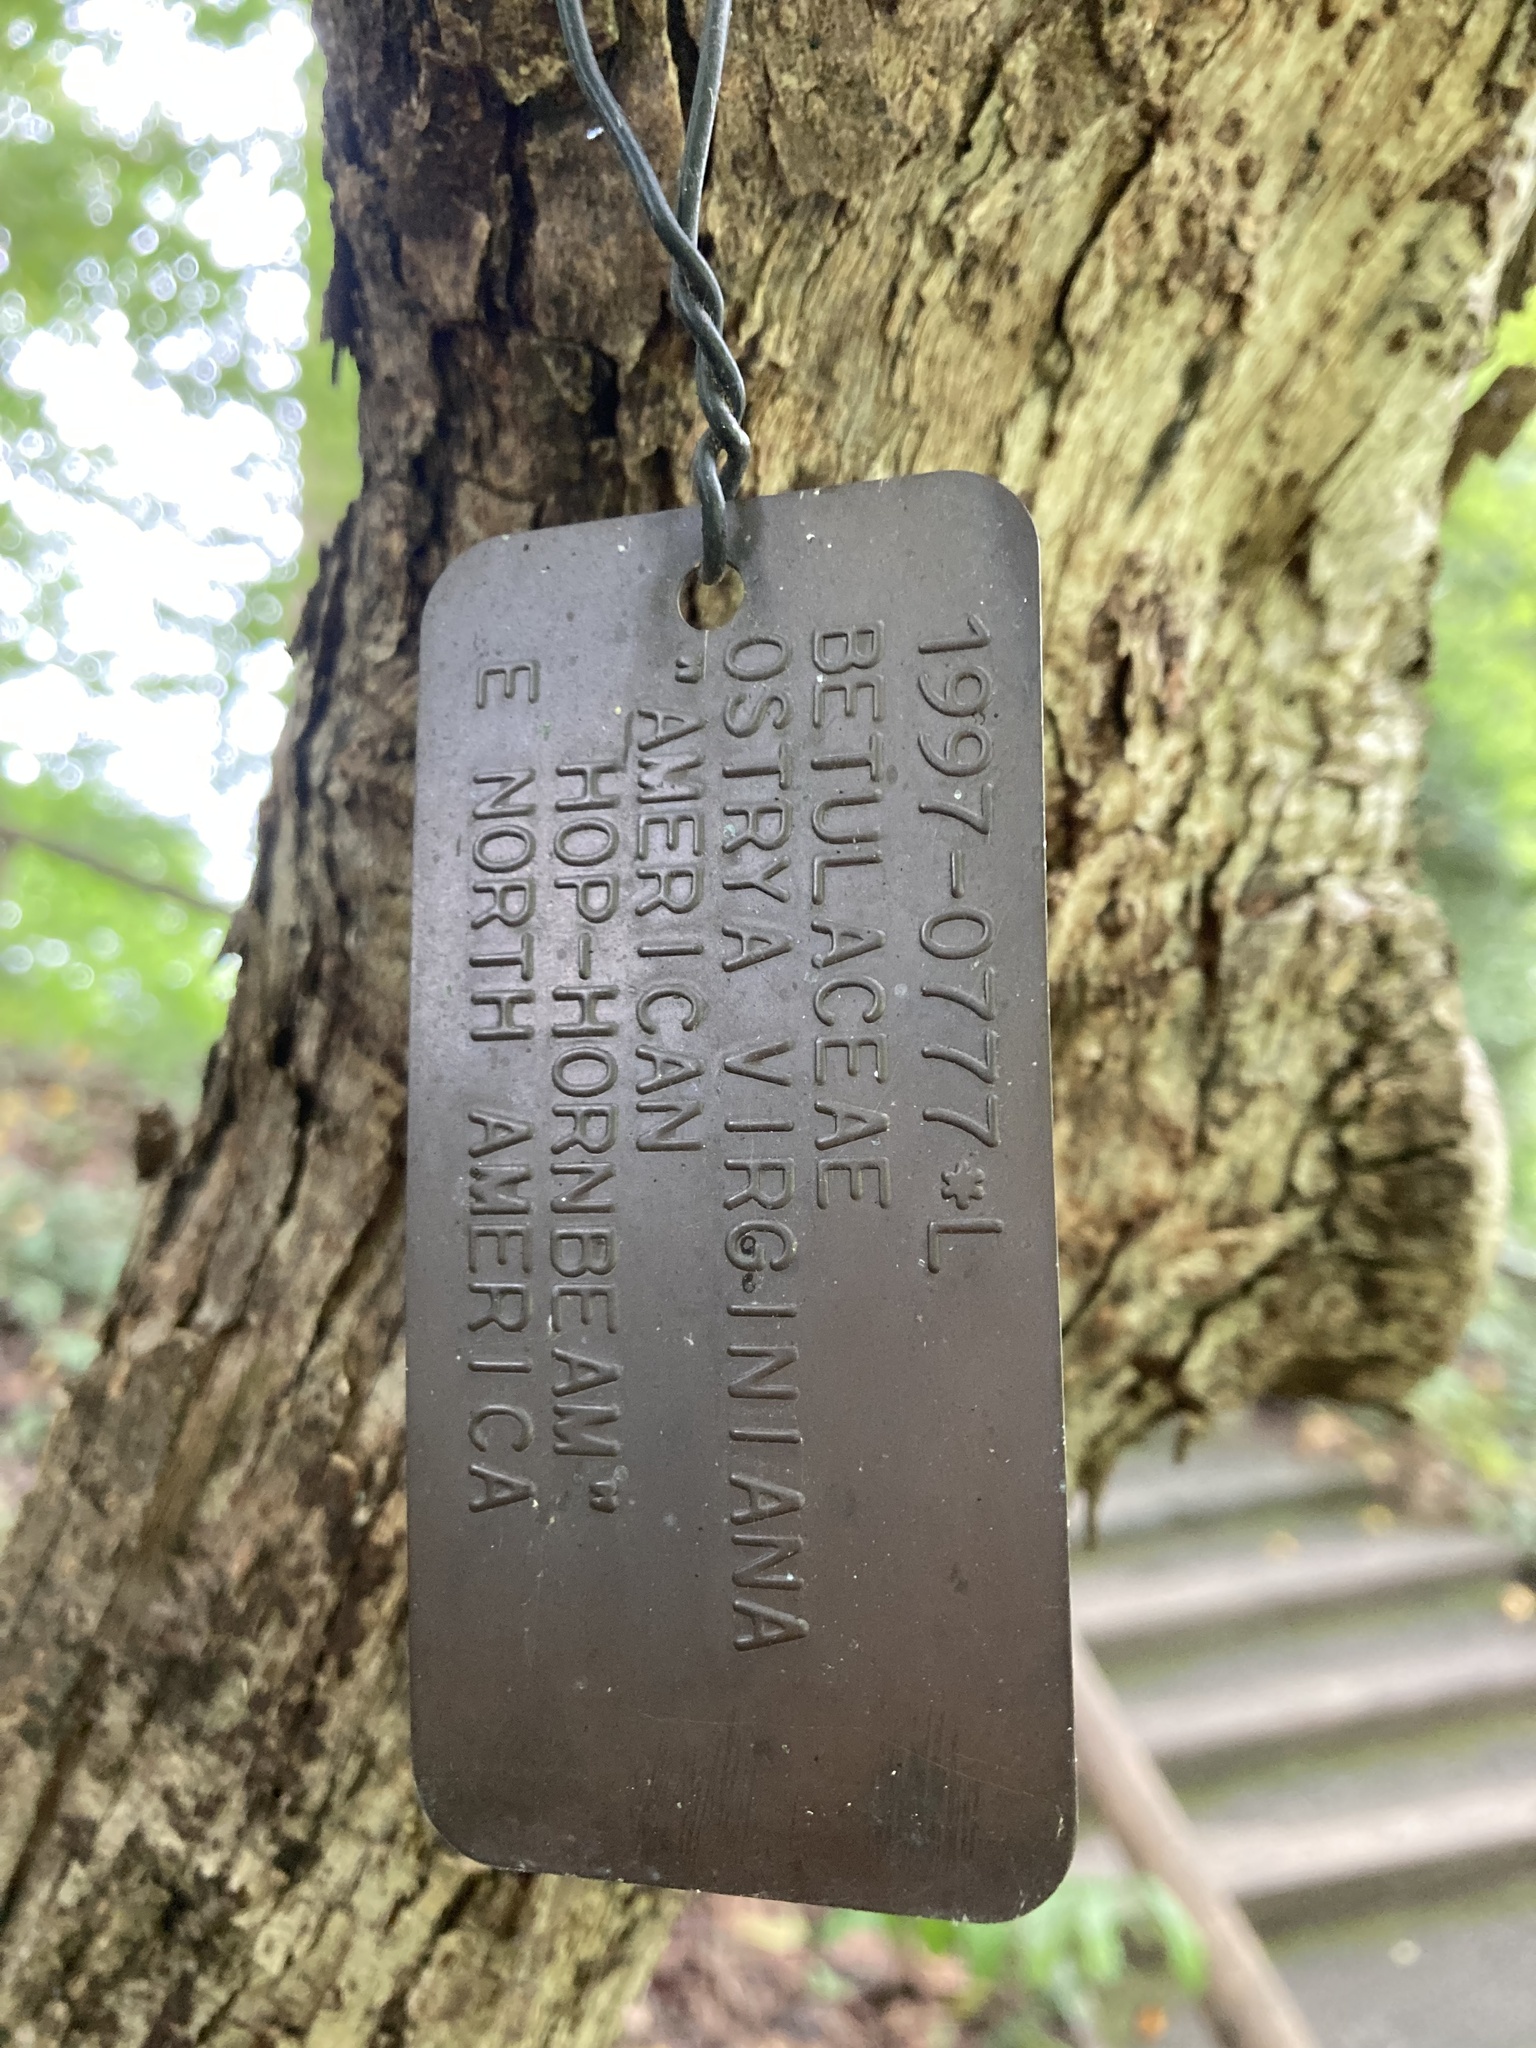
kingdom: Plantae
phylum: Tracheophyta
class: Magnoliopsida
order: Fagales
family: Betulaceae
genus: Ostrya
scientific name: Ostrya virginiana
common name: Ironwood
